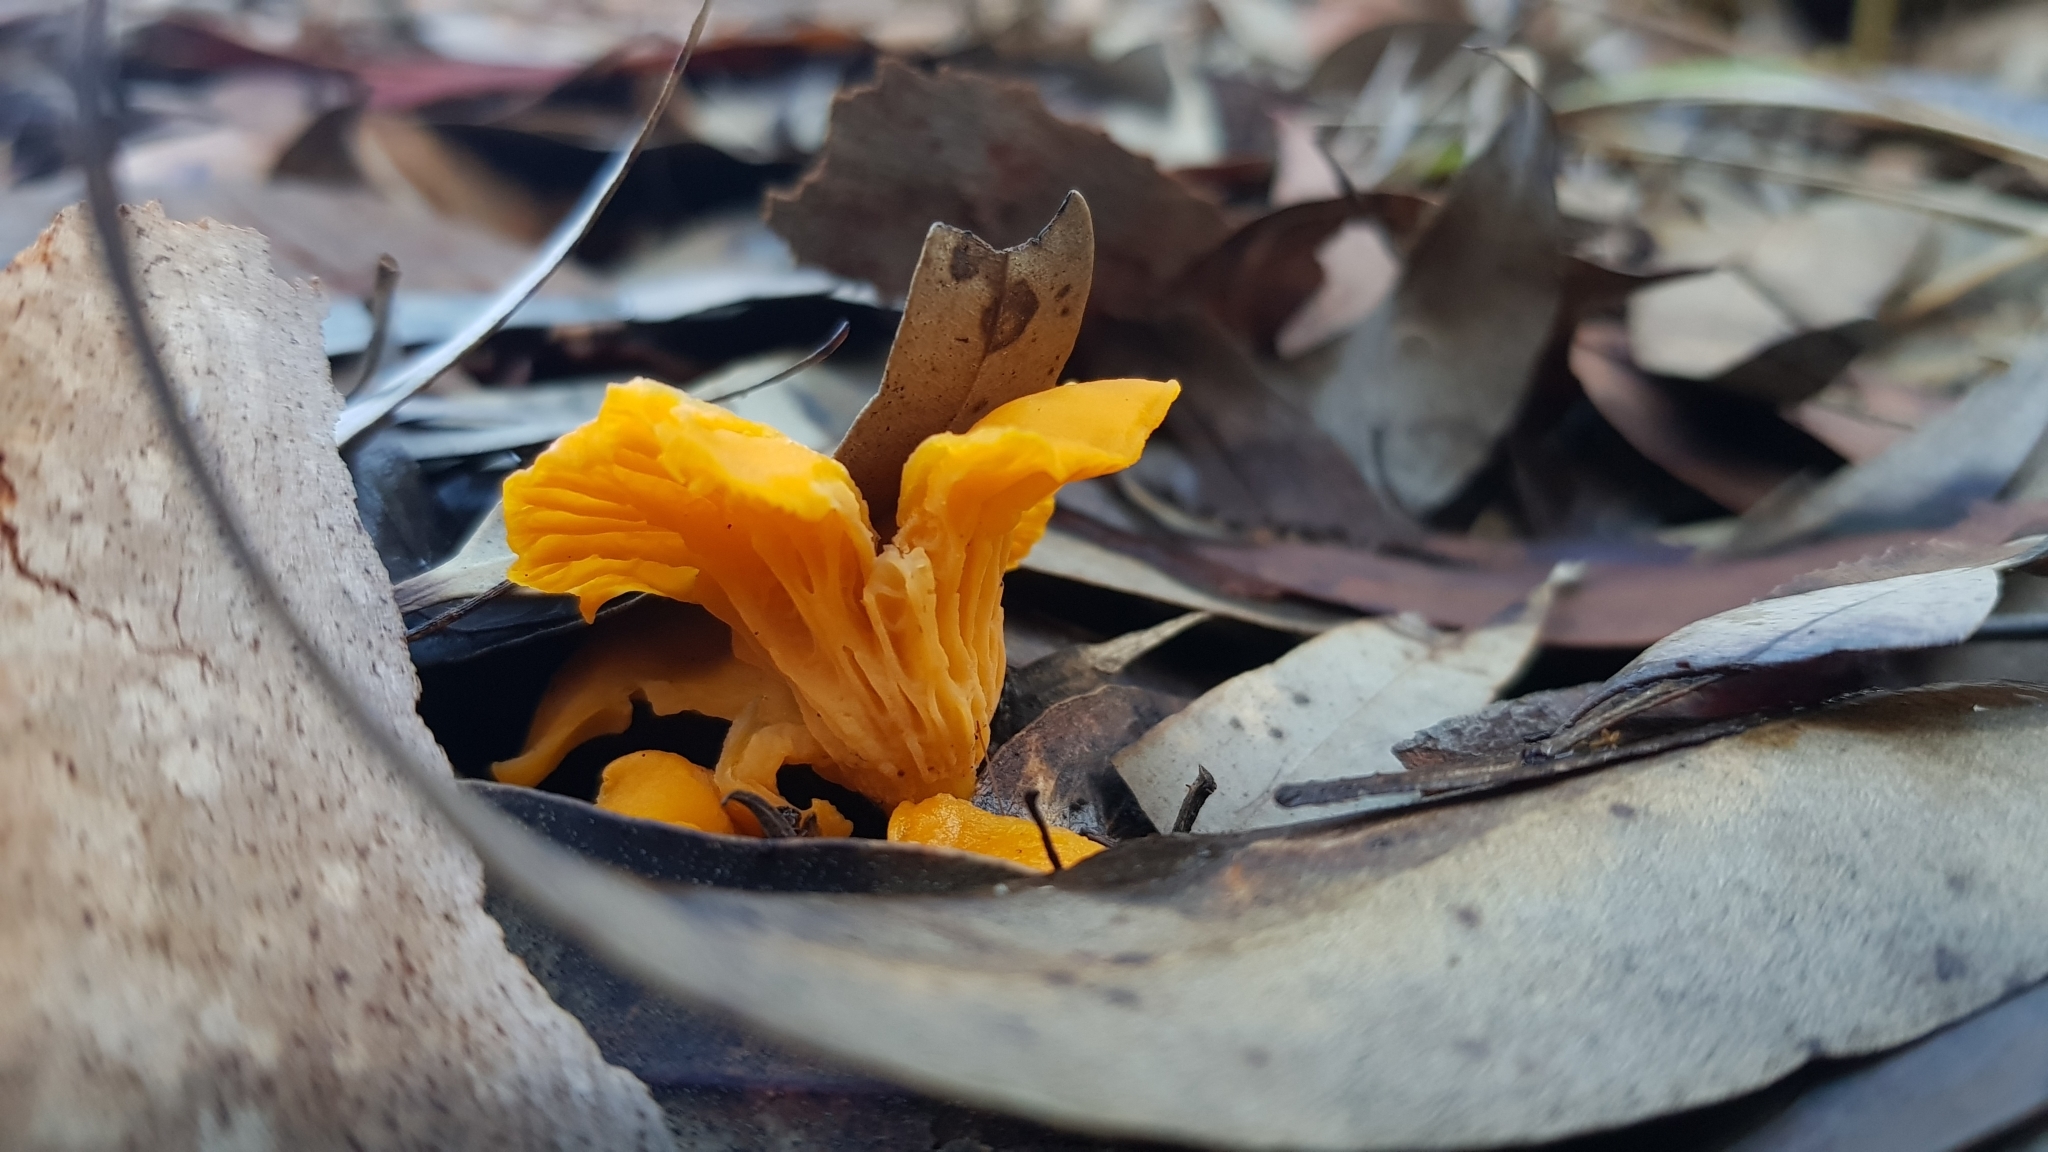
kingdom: Fungi
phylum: Basidiomycota
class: Agaricomycetes
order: Cantharellales
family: Hydnaceae
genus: Cantharellus
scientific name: Cantharellus
